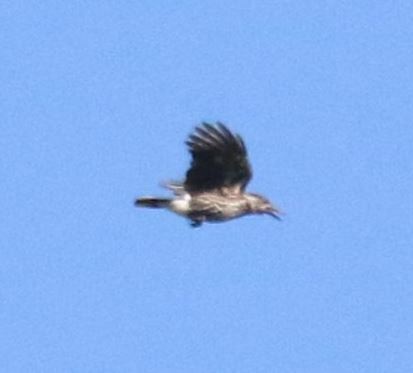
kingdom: Animalia
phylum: Chordata
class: Aves
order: Passeriformes
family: Corvidae
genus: Nucifraga
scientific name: Nucifraga caryocatactes
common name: Spotted nutcracker
